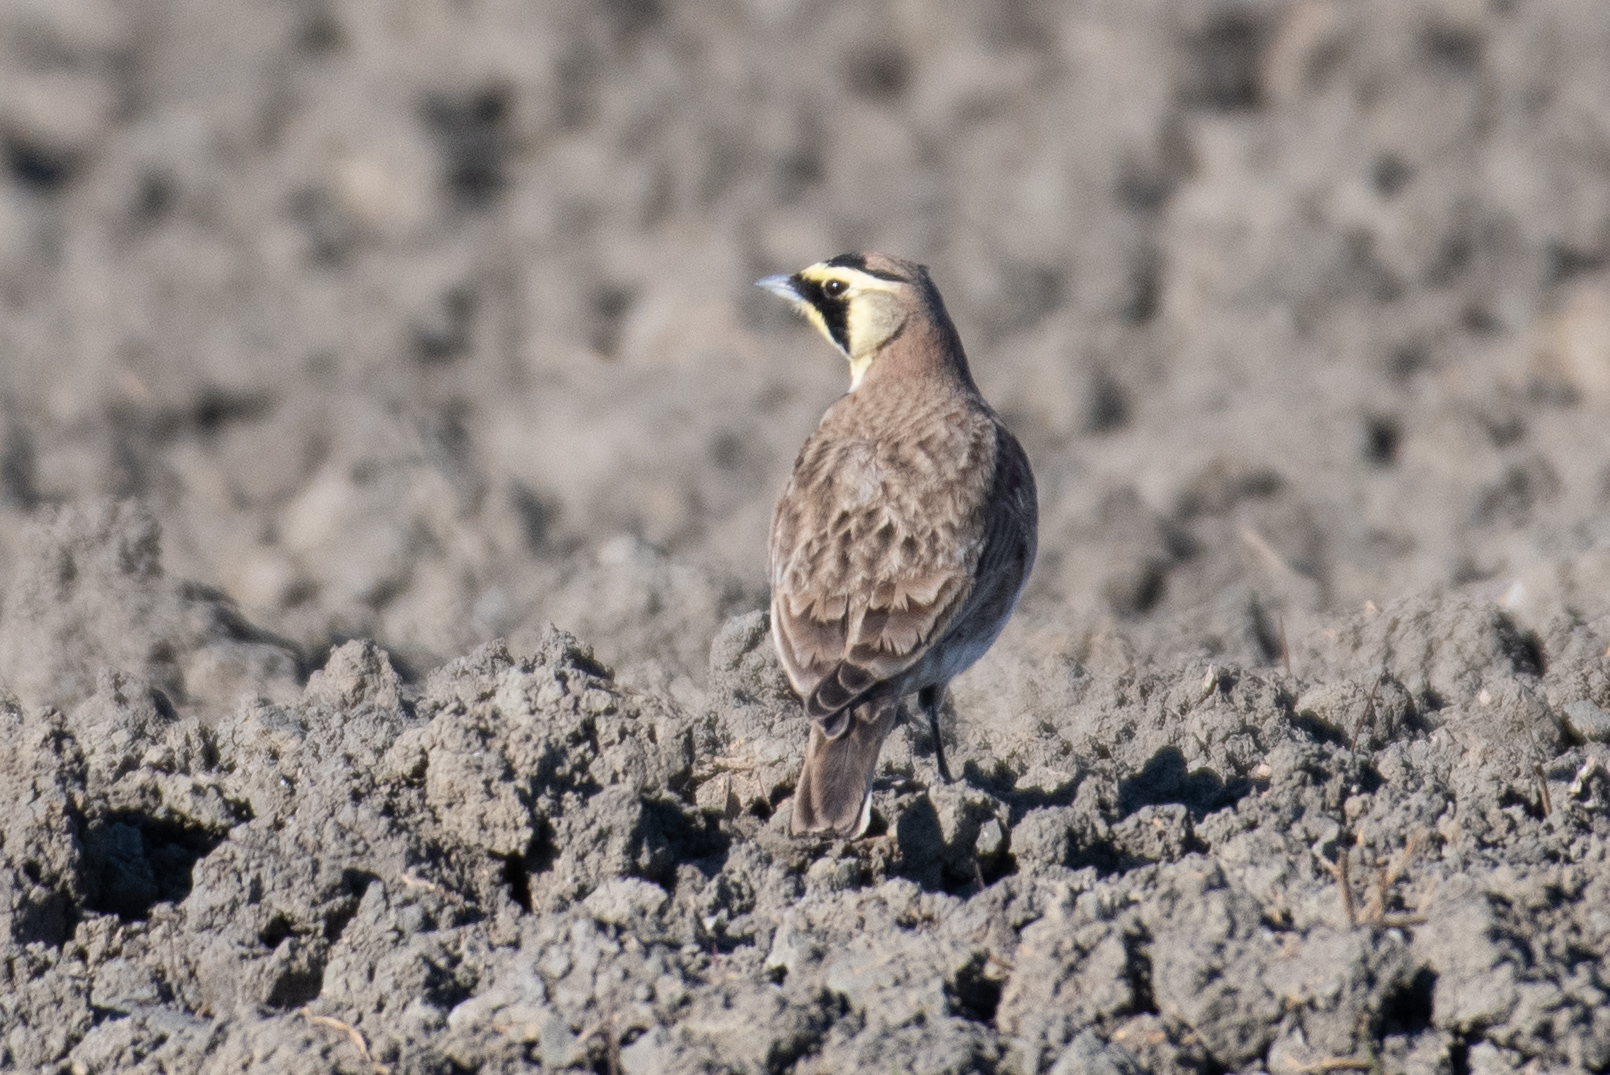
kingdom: Animalia
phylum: Chordata
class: Aves
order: Passeriformes
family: Alaudidae
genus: Eremophila
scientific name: Eremophila alpestris
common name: Horned lark
